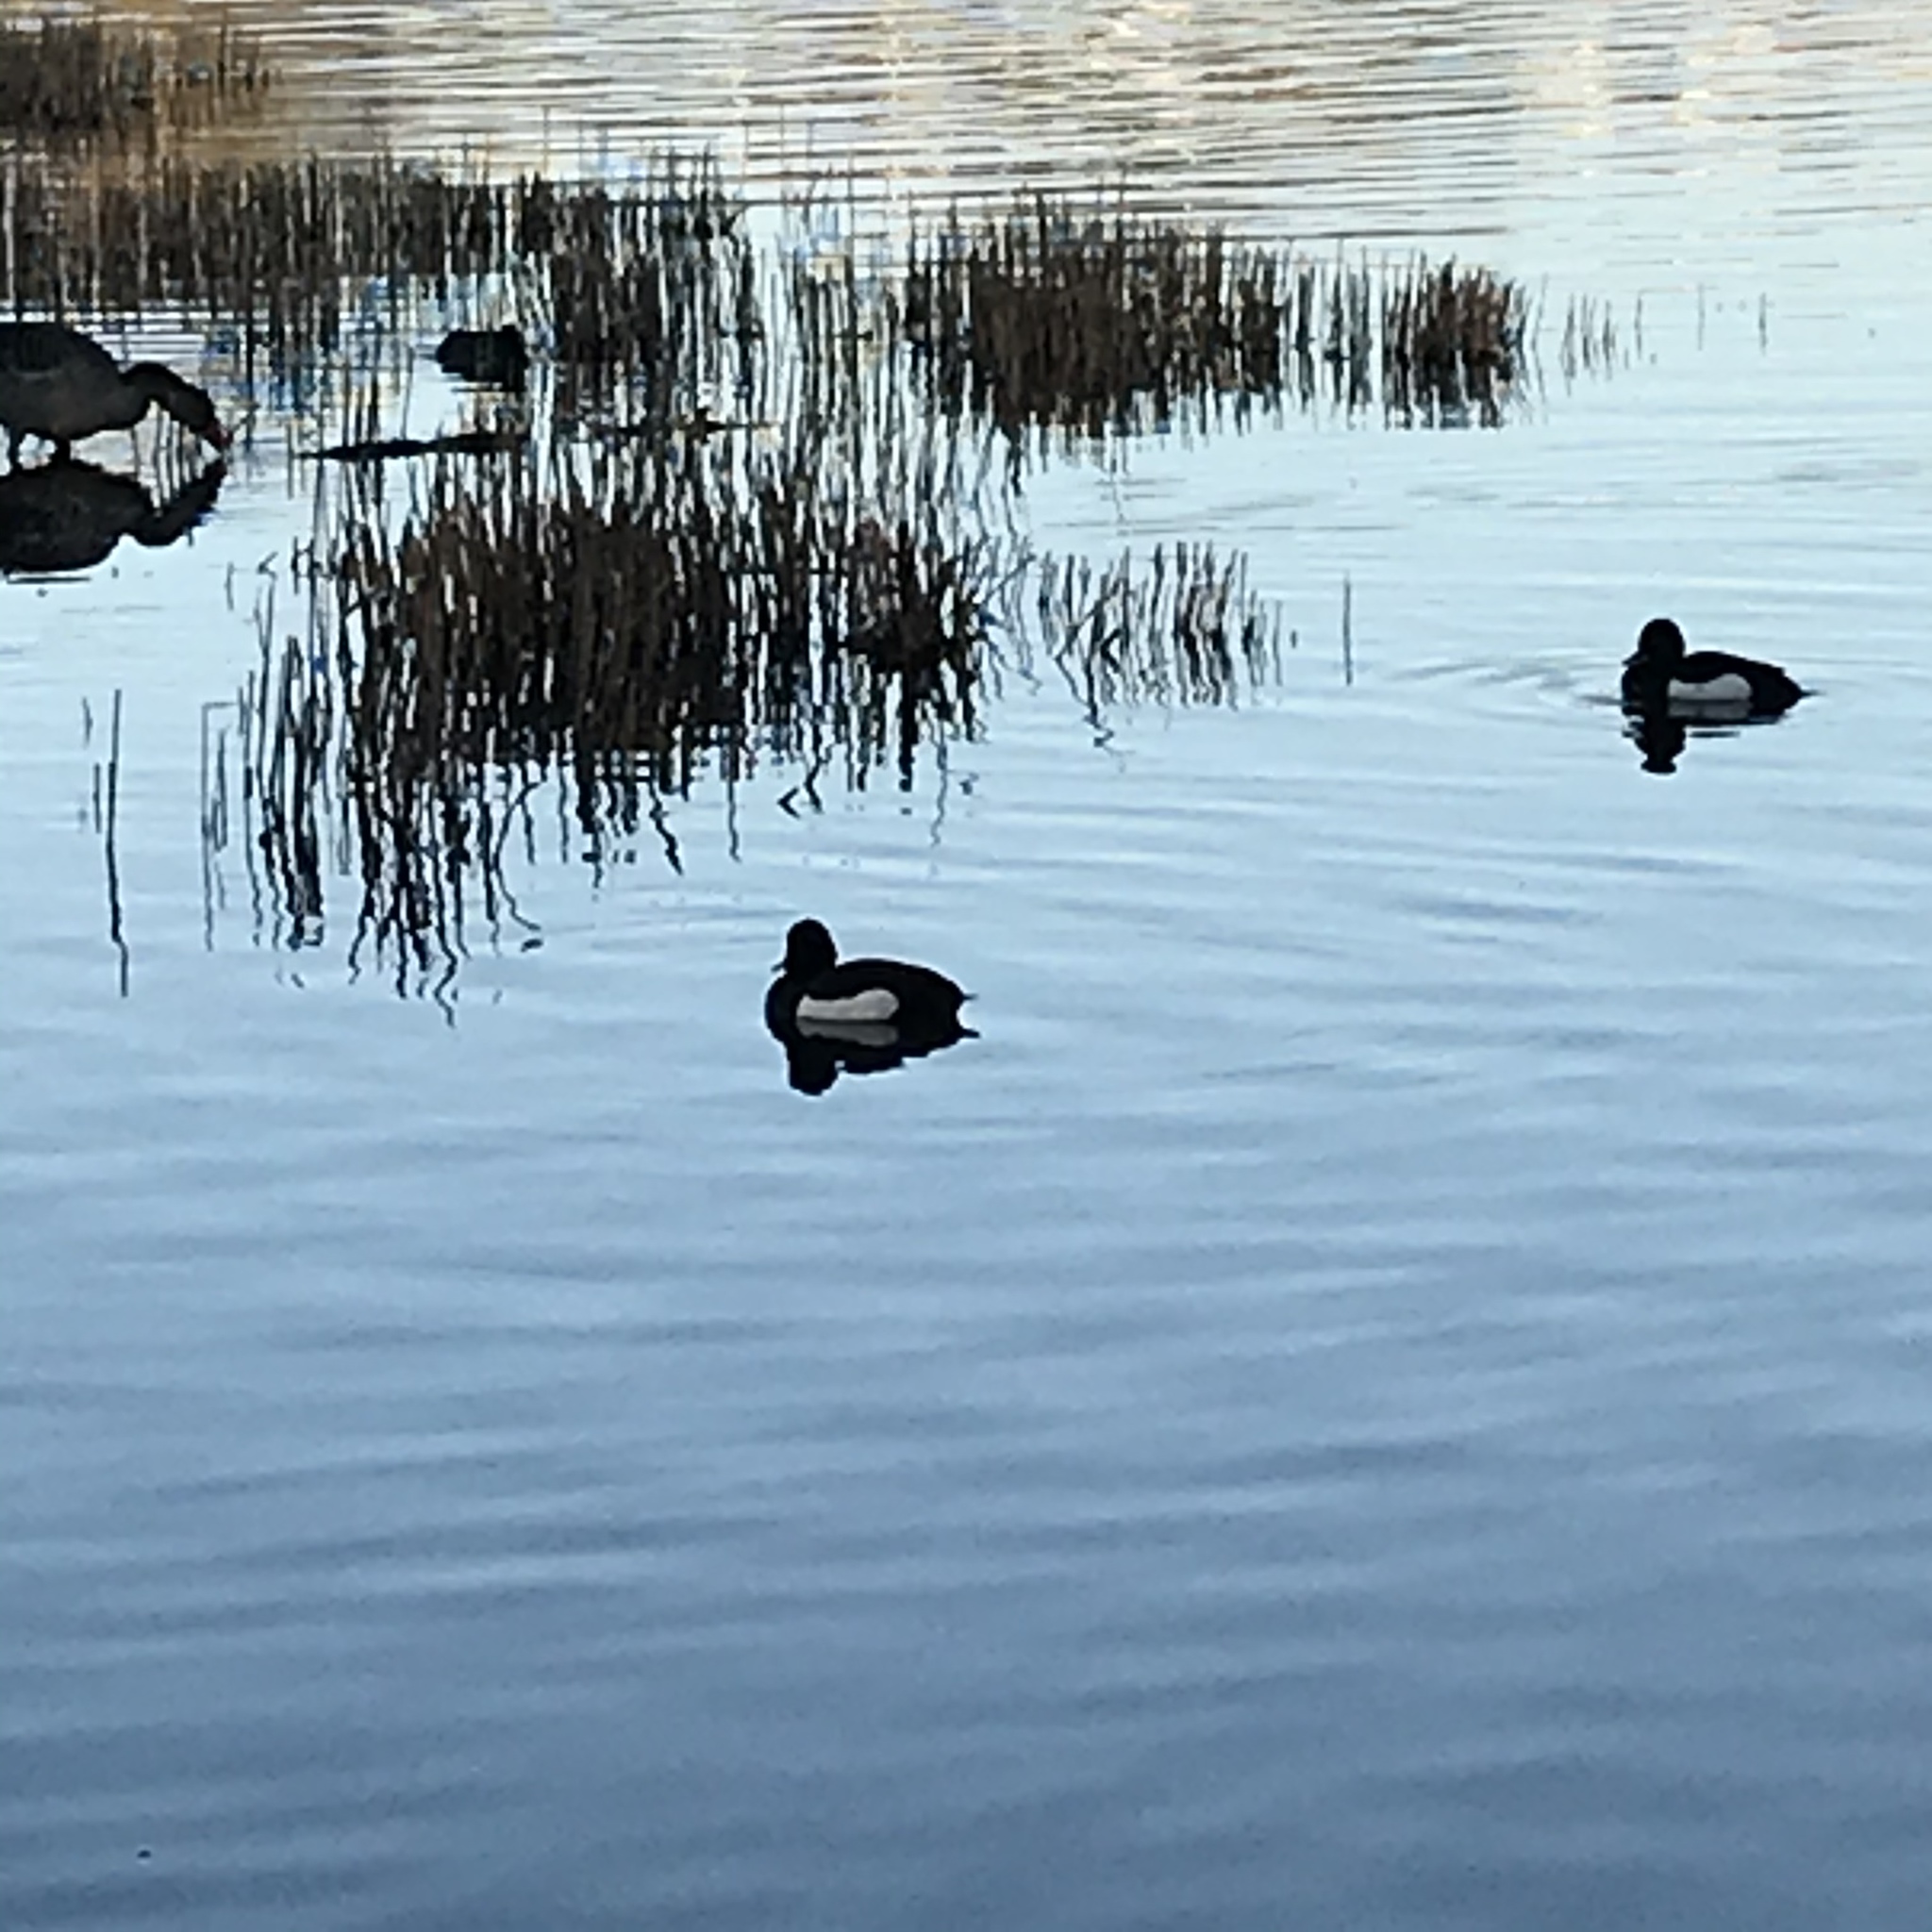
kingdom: Animalia
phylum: Chordata
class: Aves
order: Anseriformes
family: Anatidae
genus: Aythya
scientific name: Aythya fuligula
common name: Tufted duck
